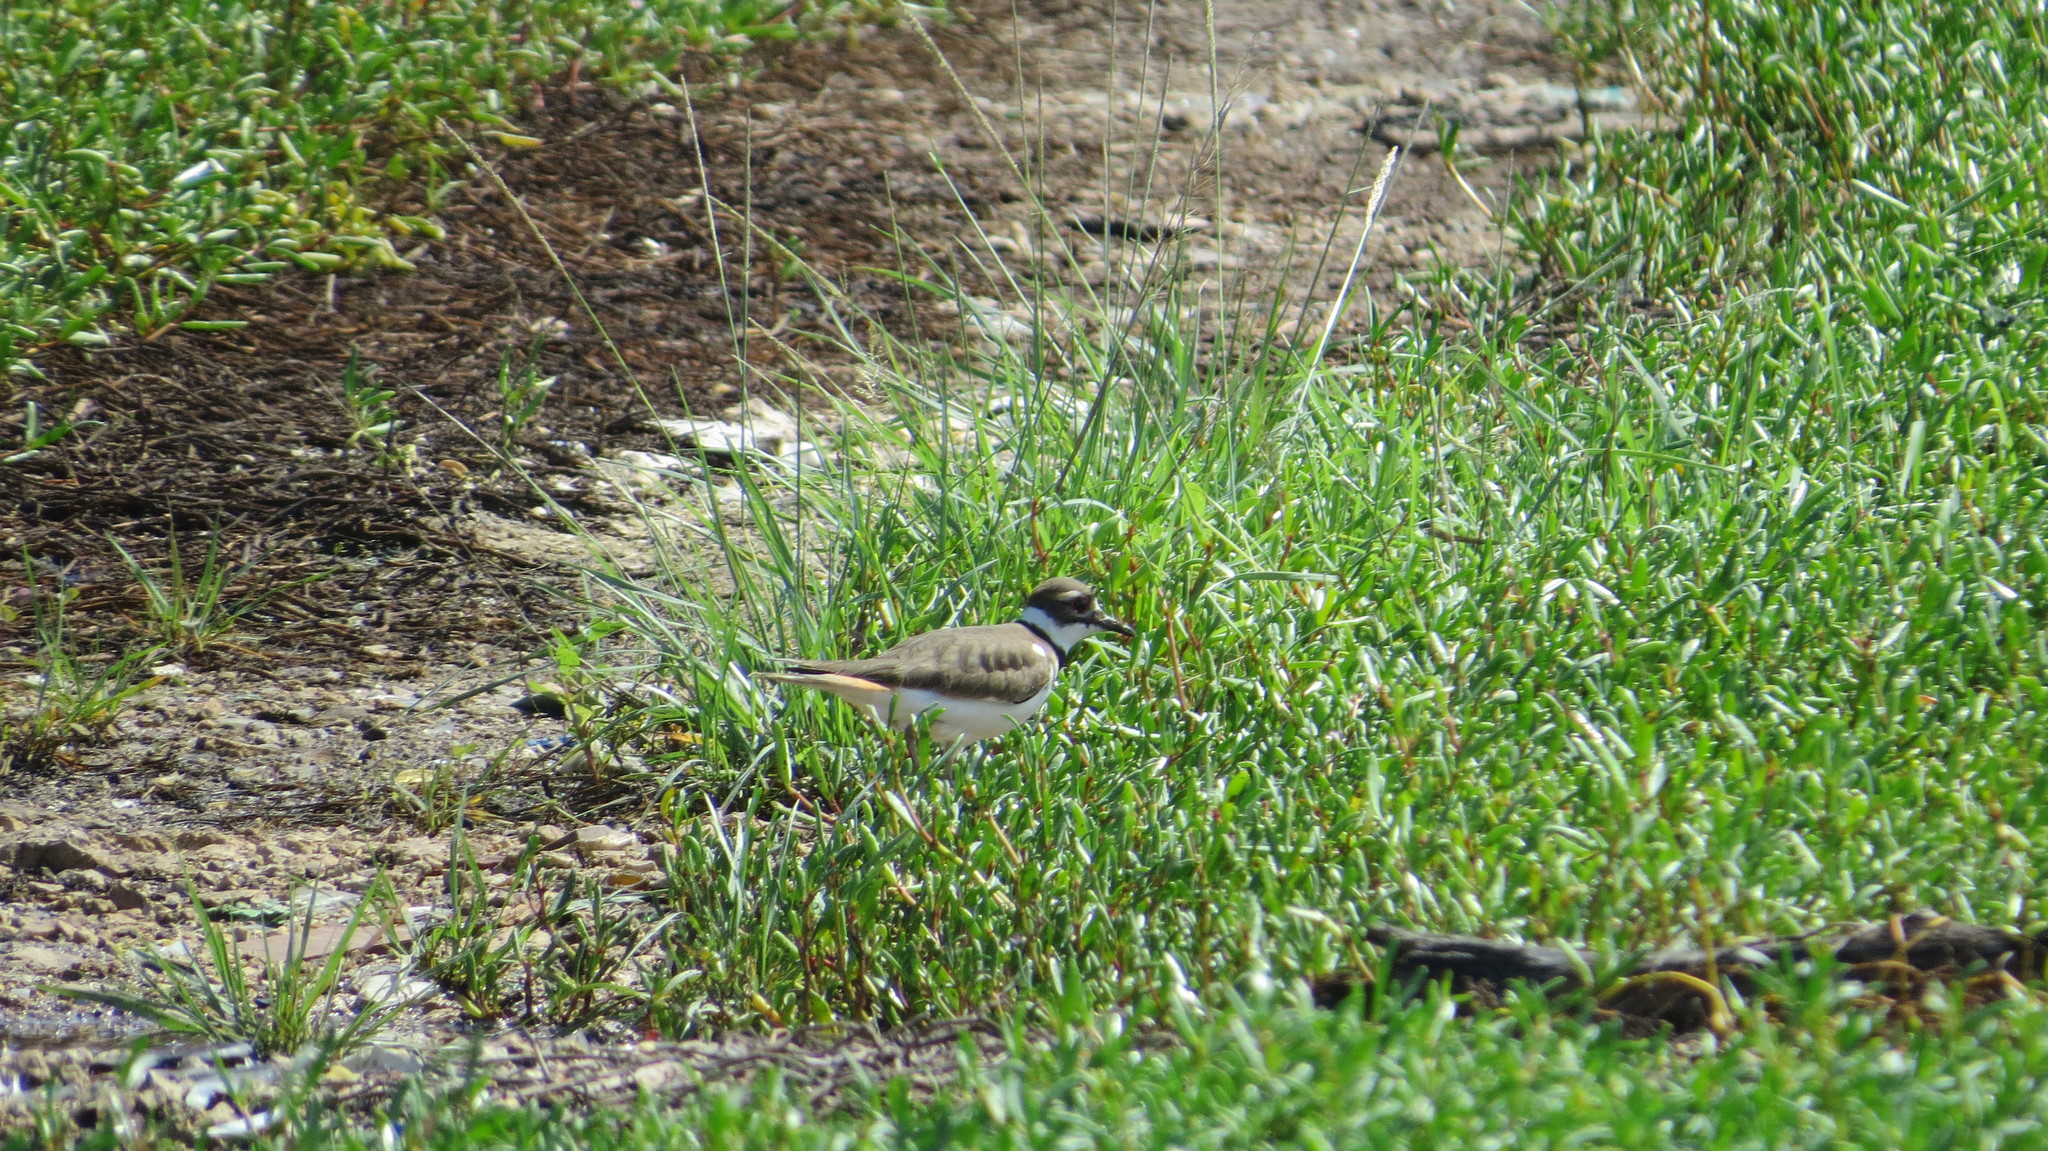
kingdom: Animalia
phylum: Chordata
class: Aves
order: Charadriiformes
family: Charadriidae
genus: Charadrius
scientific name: Charadrius vociferus
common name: Killdeer
